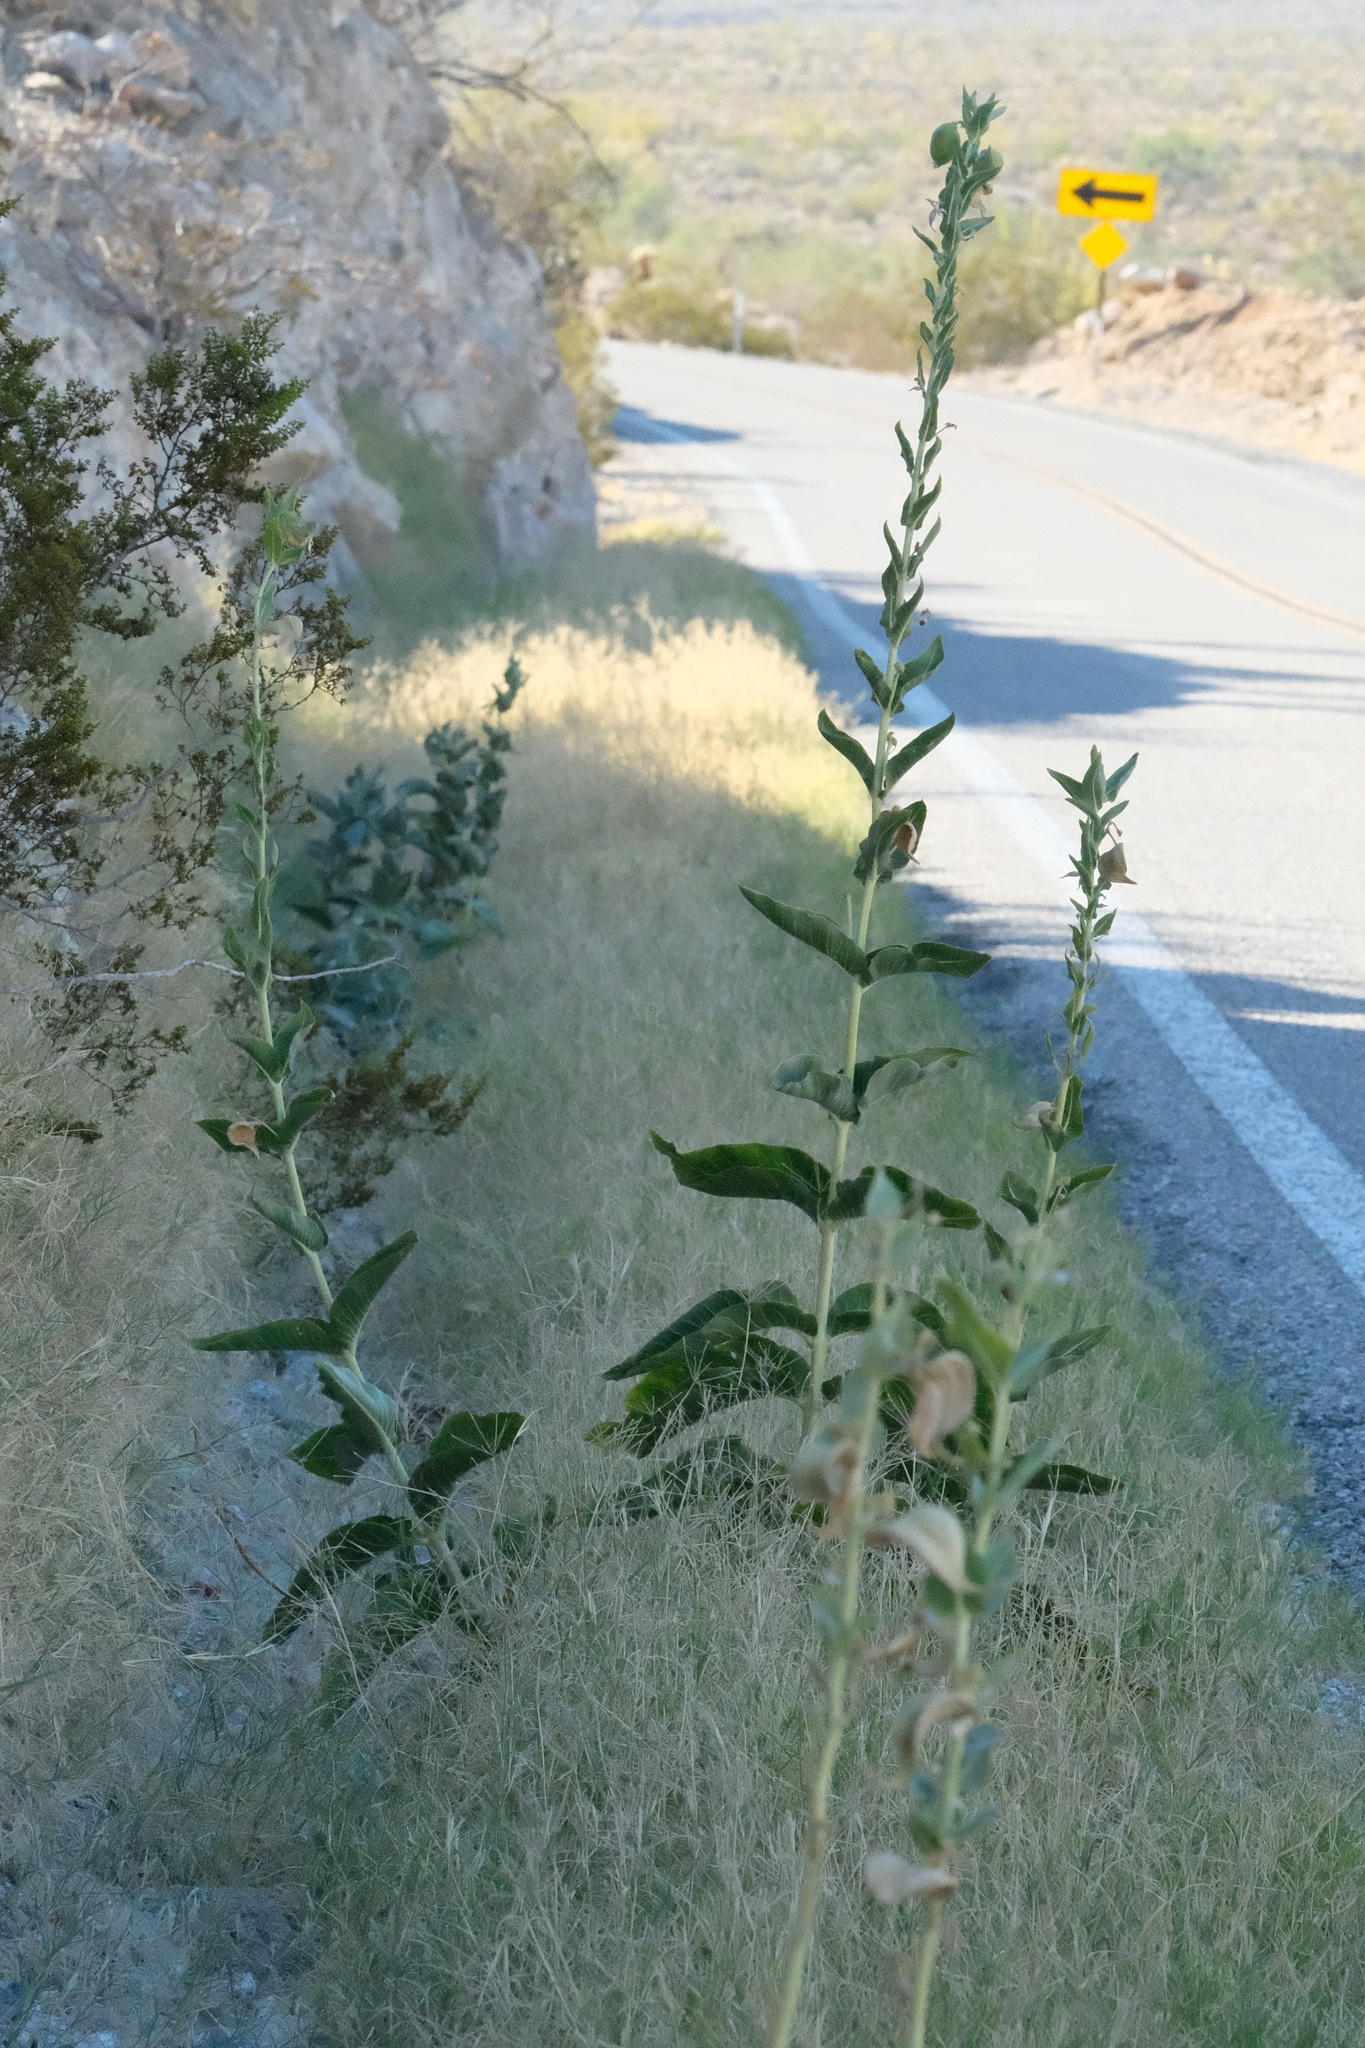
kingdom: Plantae
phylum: Tracheophyta
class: Magnoliopsida
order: Gentianales
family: Apocynaceae
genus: Asclepias
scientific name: Asclepias erosa
